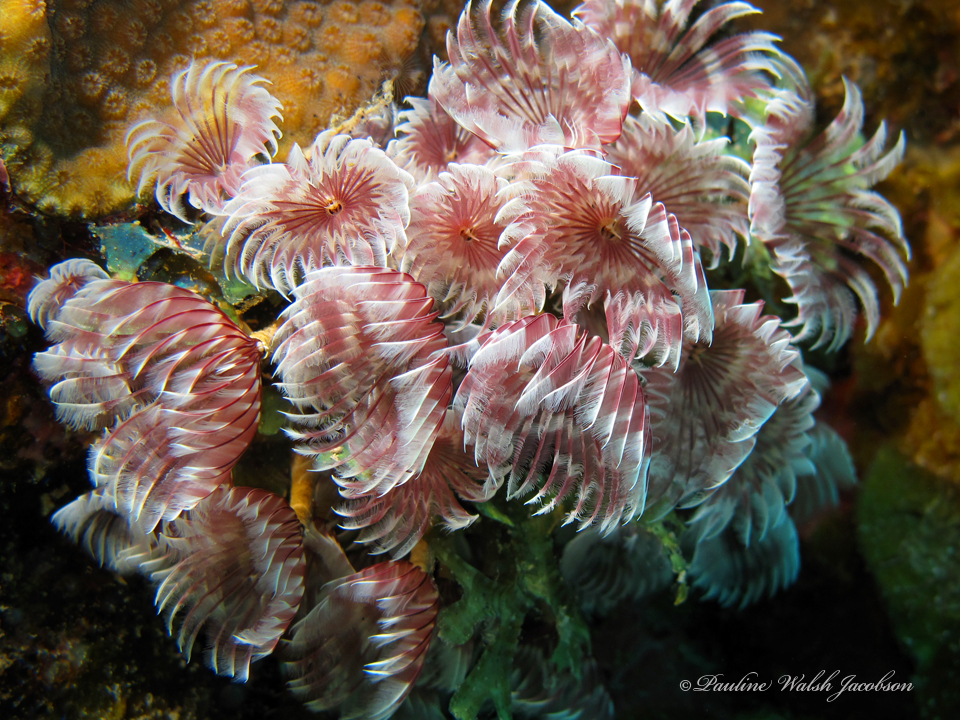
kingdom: Animalia
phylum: Annelida
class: Polychaeta
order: Sabellida
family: Sabellidae
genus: Bispira
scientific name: Bispira brunnea
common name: Social feather duster
